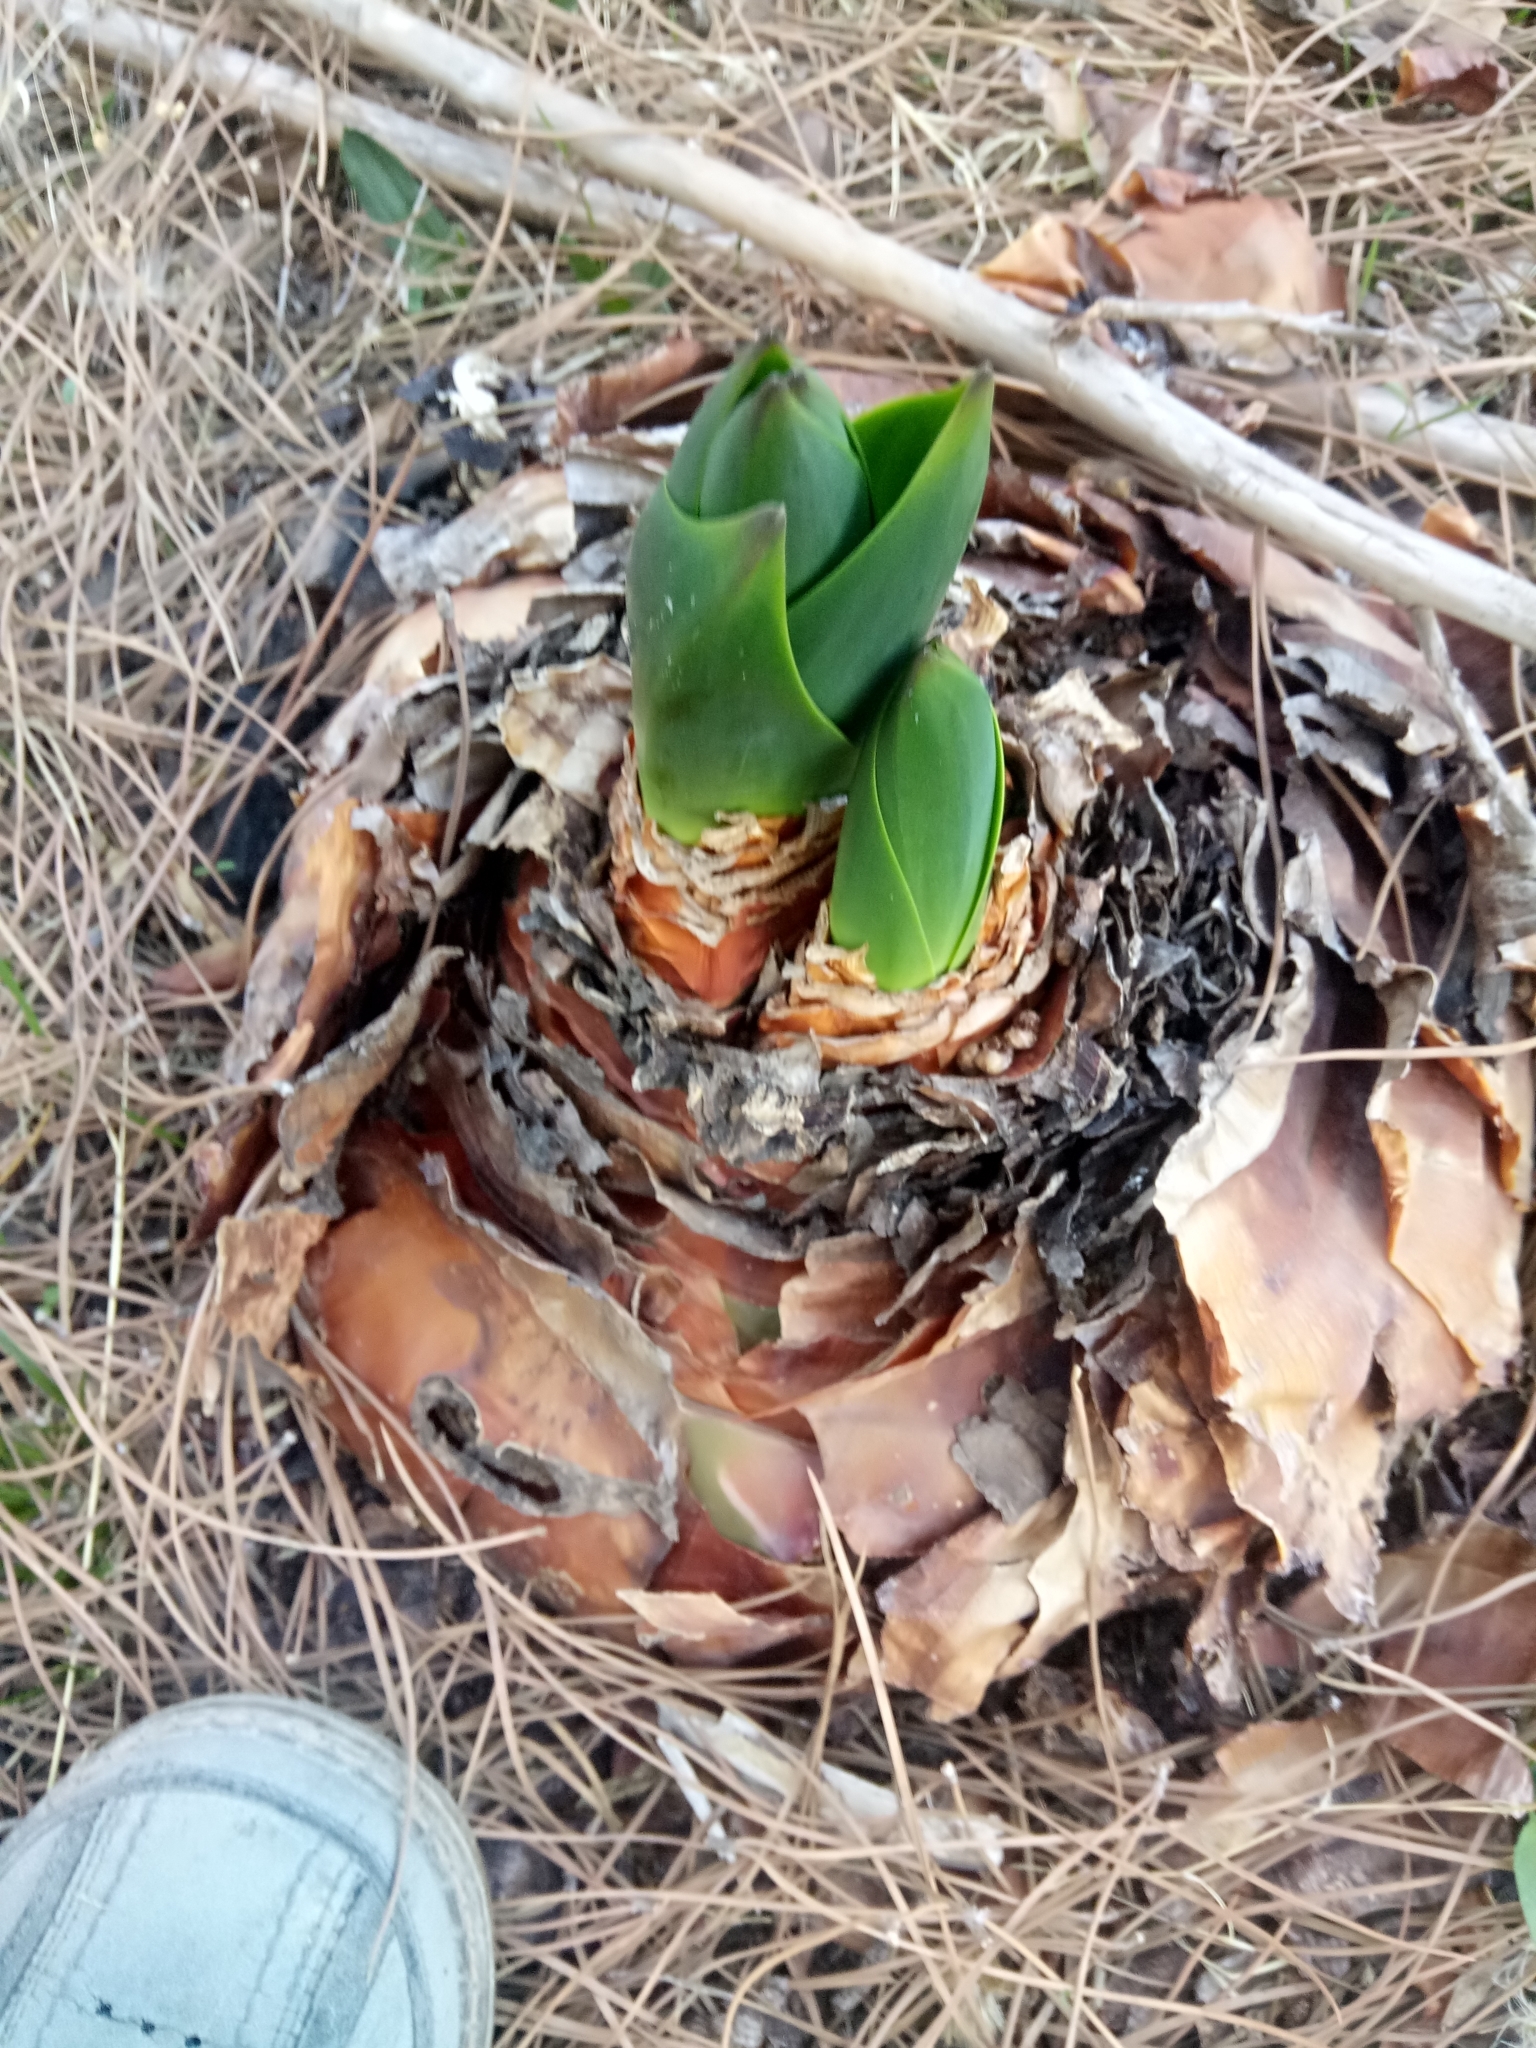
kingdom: Plantae
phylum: Tracheophyta
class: Liliopsida
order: Asparagales
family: Asparagaceae
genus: Drimia
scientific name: Drimia numidica
